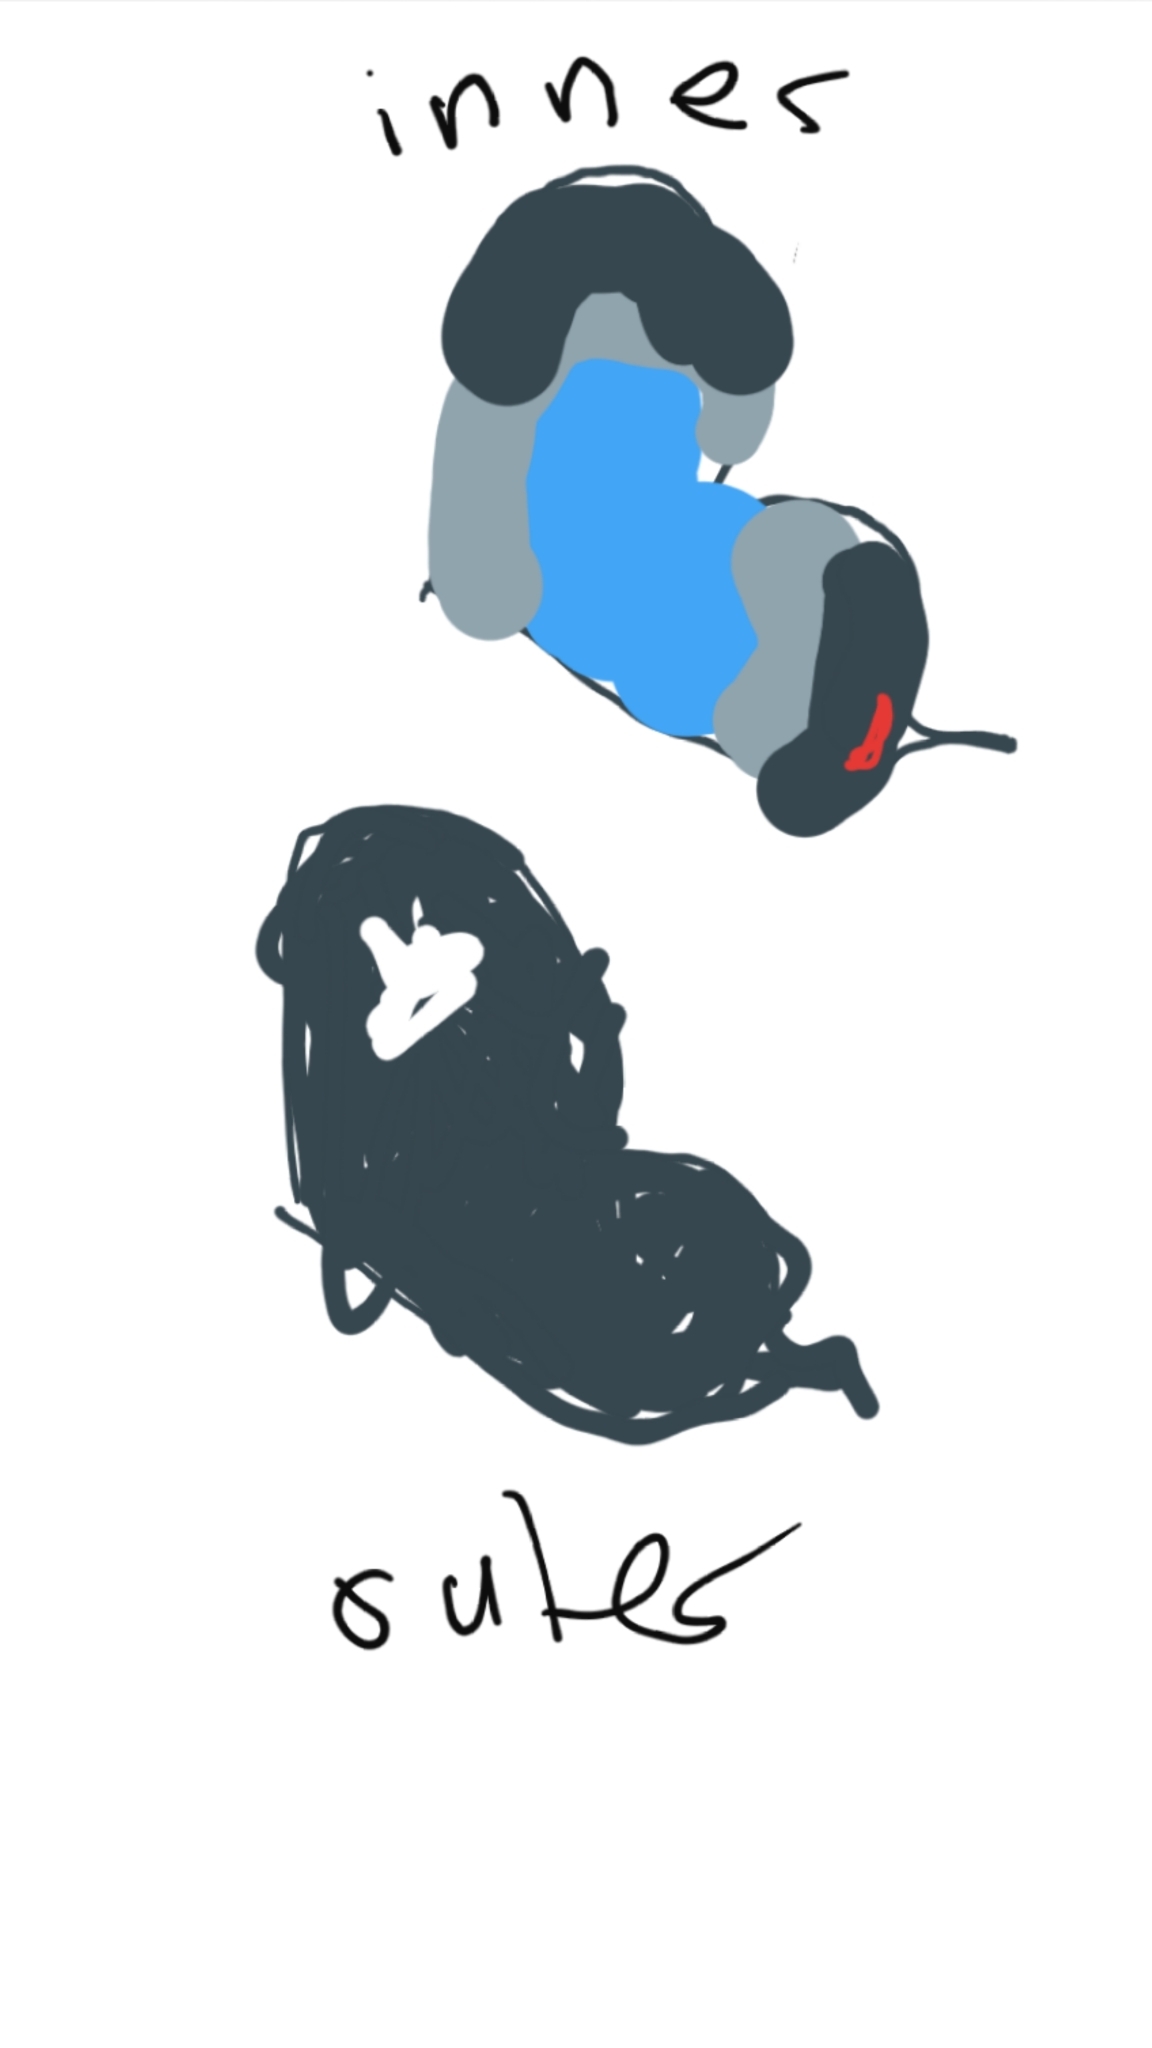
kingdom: Animalia
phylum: Arthropoda
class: Insecta
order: Lepidoptera
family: Lycaenidae
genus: Erysichton
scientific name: Erysichton lineata
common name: Hairy line blue
